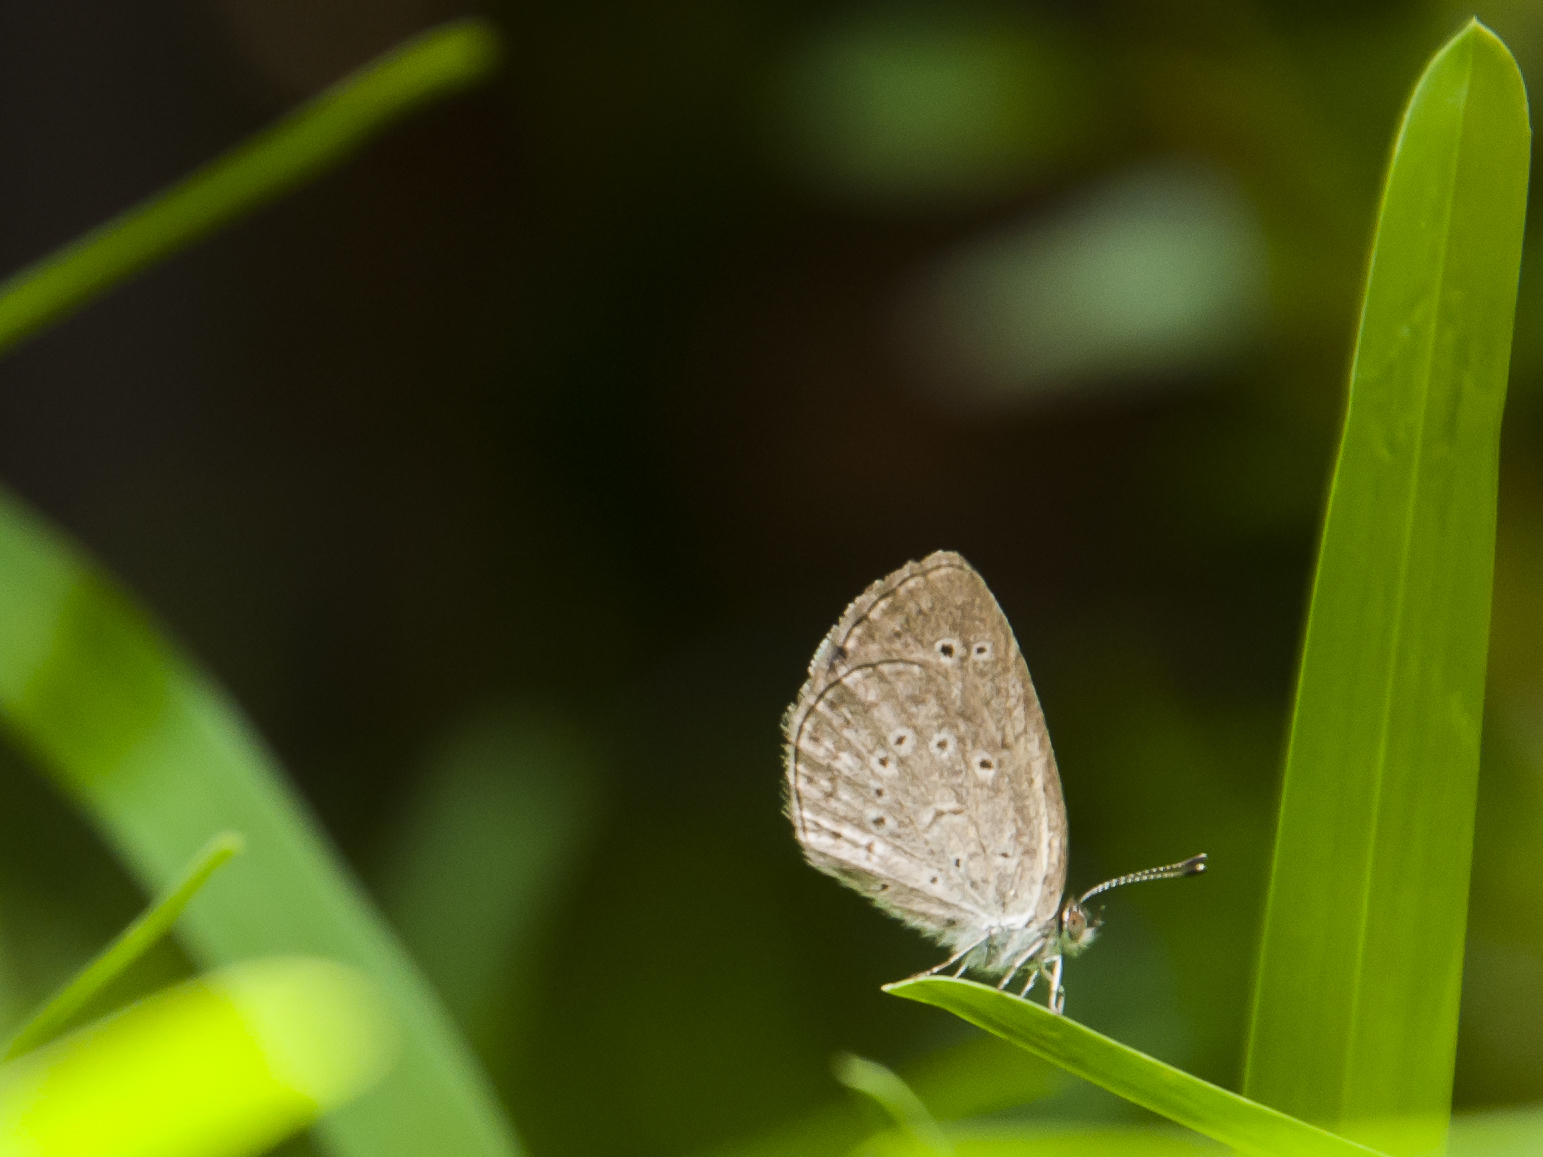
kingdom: Animalia
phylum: Arthropoda
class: Insecta
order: Lepidoptera
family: Lycaenidae
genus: Zizina
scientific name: Zizina otis
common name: Lesser grass blue
